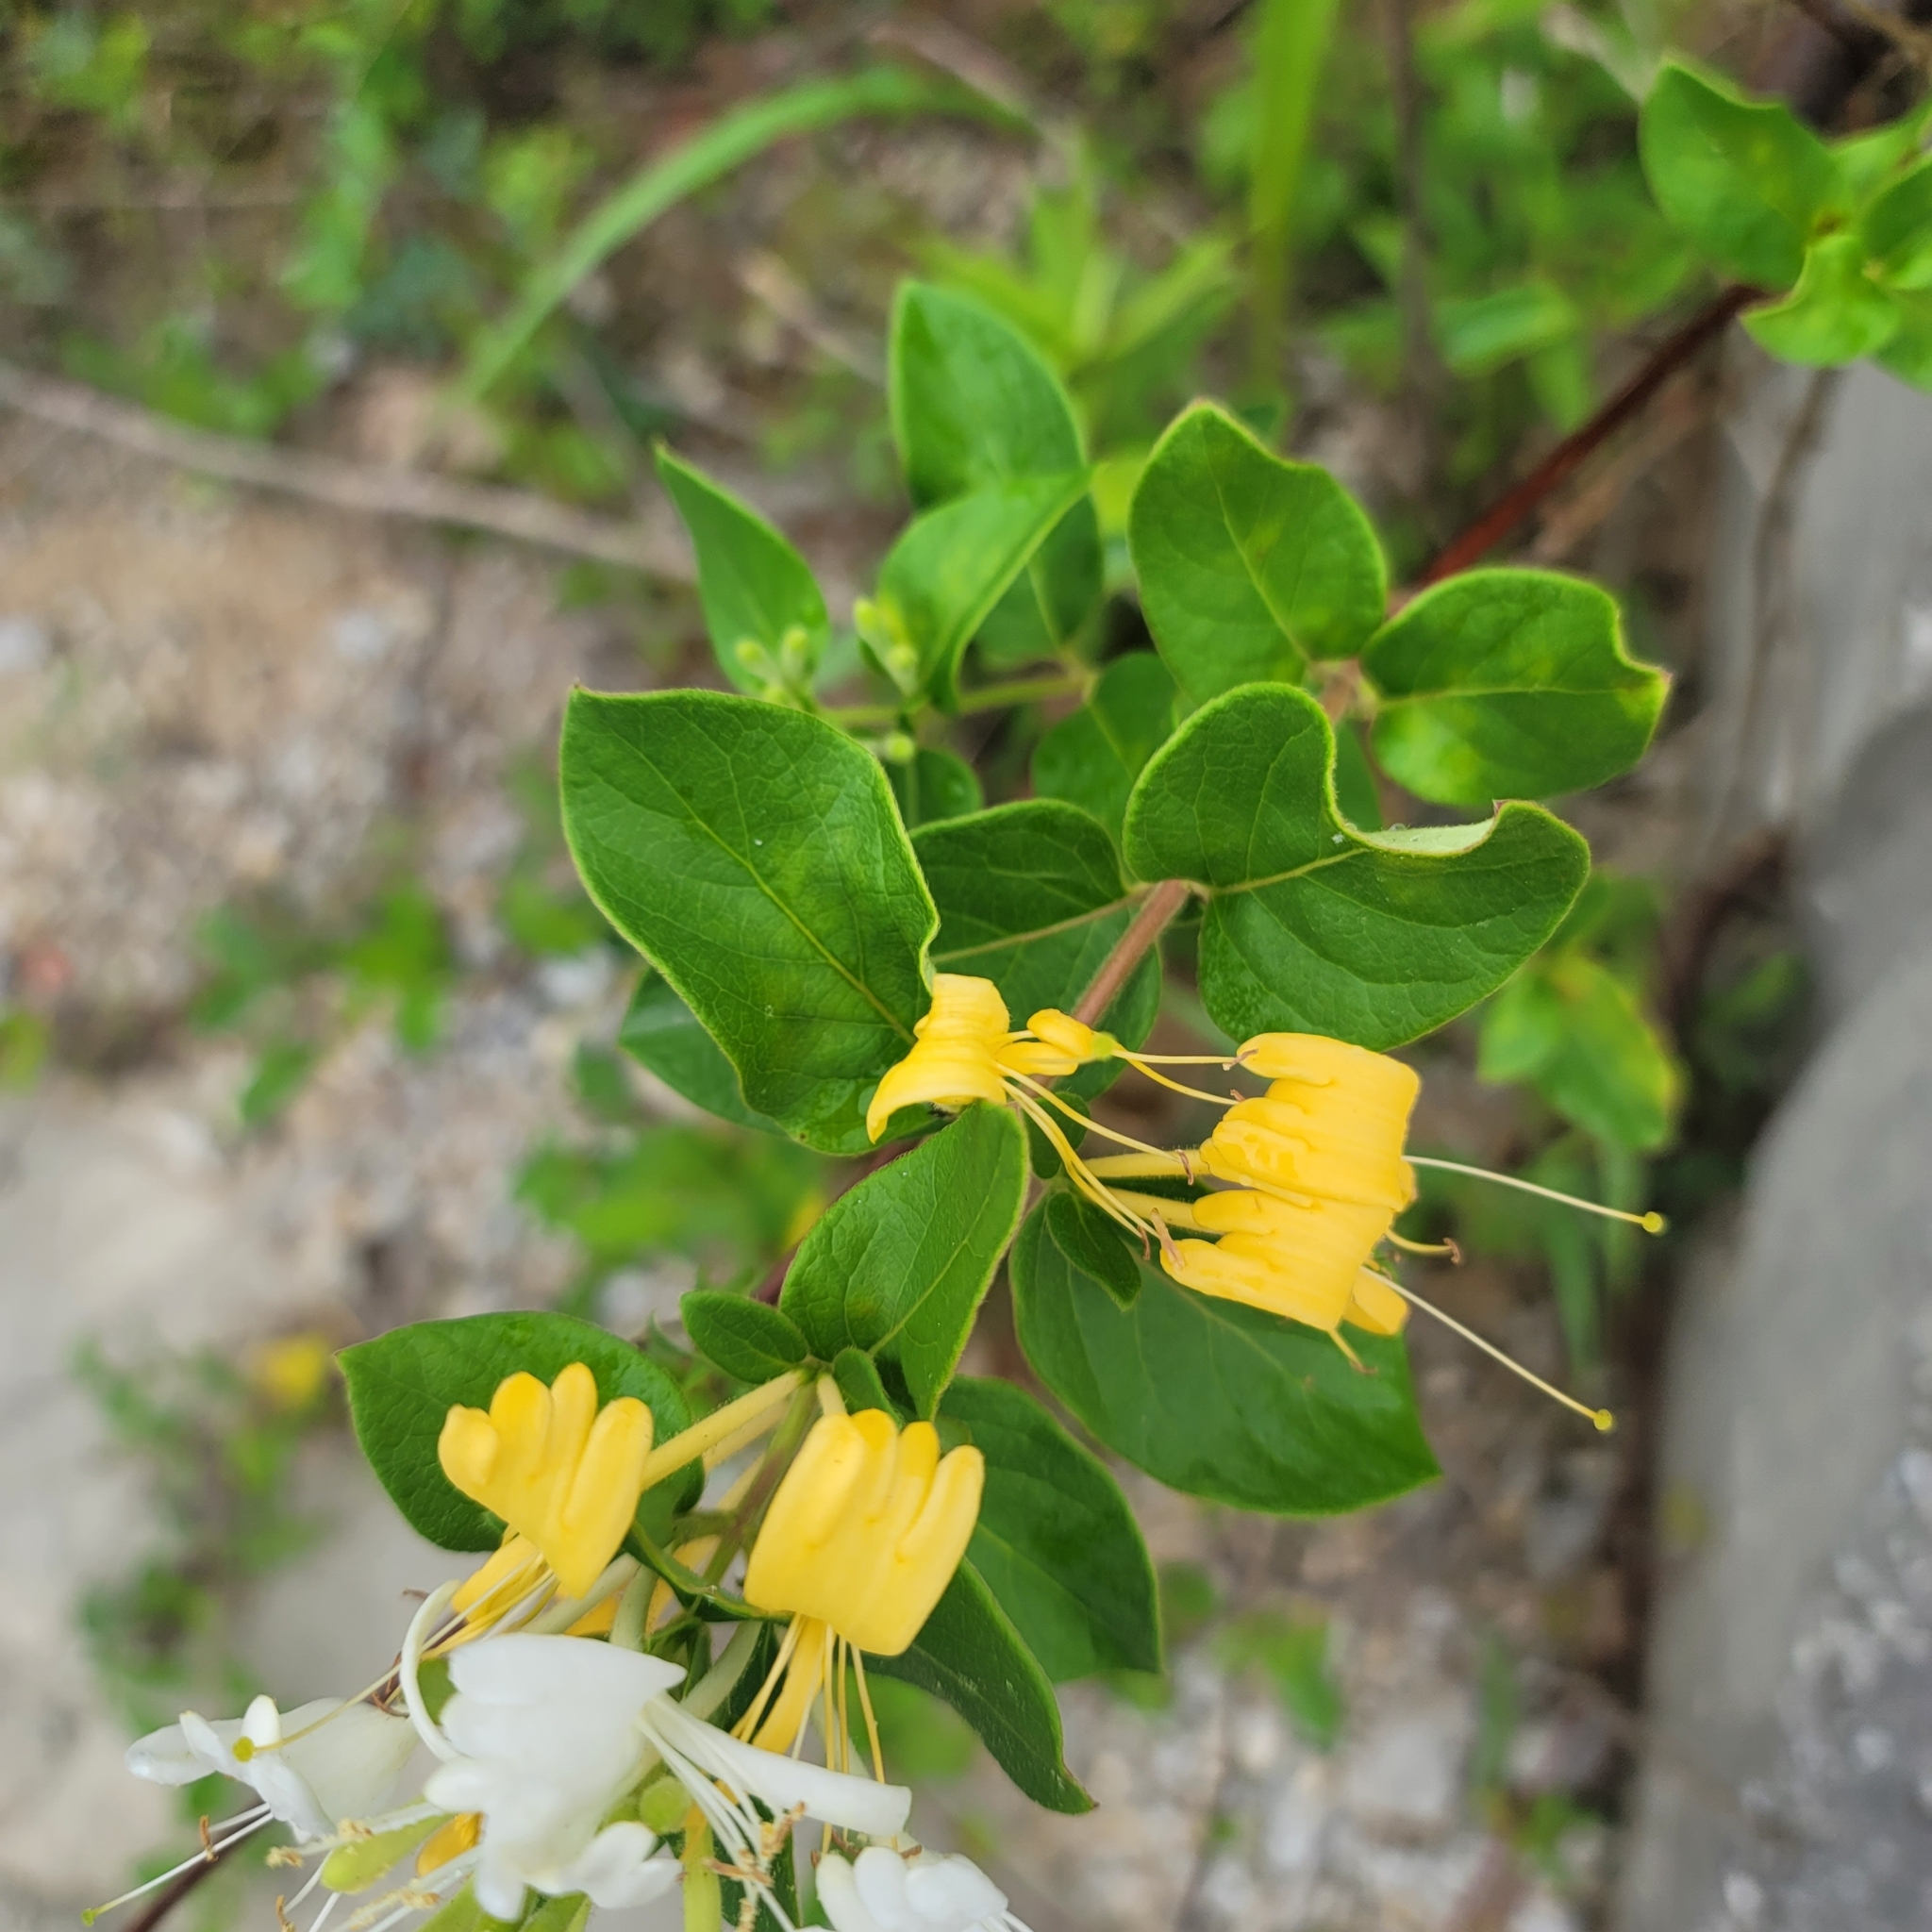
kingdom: Plantae
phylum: Tracheophyta
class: Magnoliopsida
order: Dipsacales
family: Caprifoliaceae
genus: Lonicera
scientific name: Lonicera japonica
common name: Japanese honeysuckle
